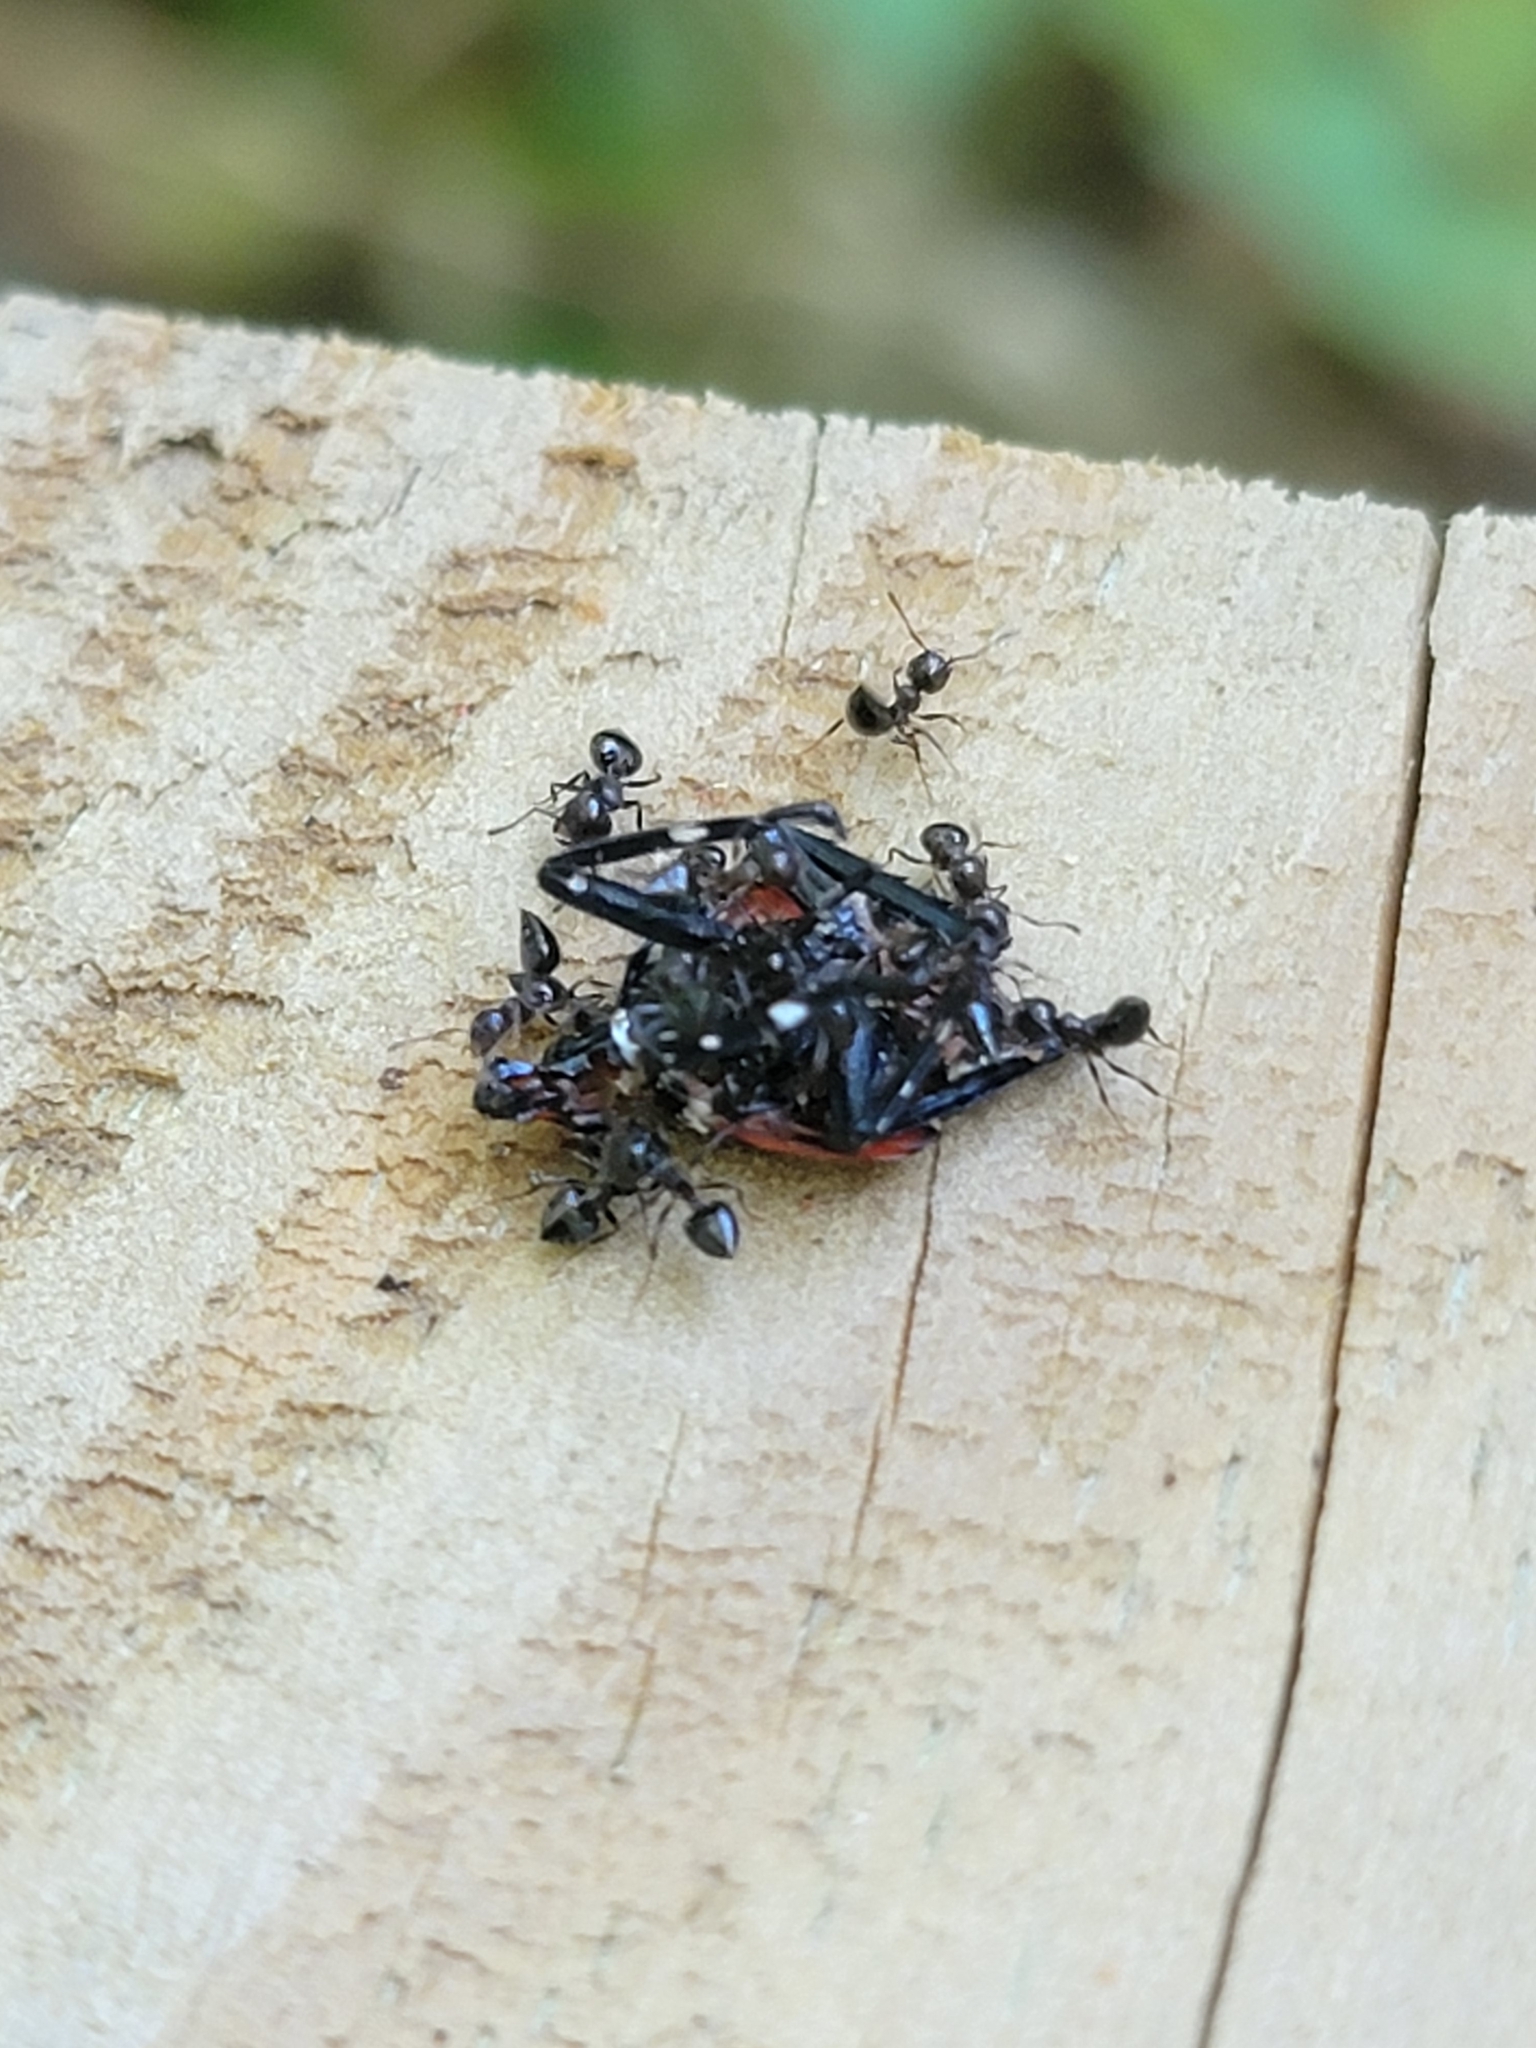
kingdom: Animalia
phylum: Arthropoda
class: Insecta
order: Hemiptera
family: Fulgoridae
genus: Lycorma
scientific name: Lycorma delicatula
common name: Spotted lanternfly
